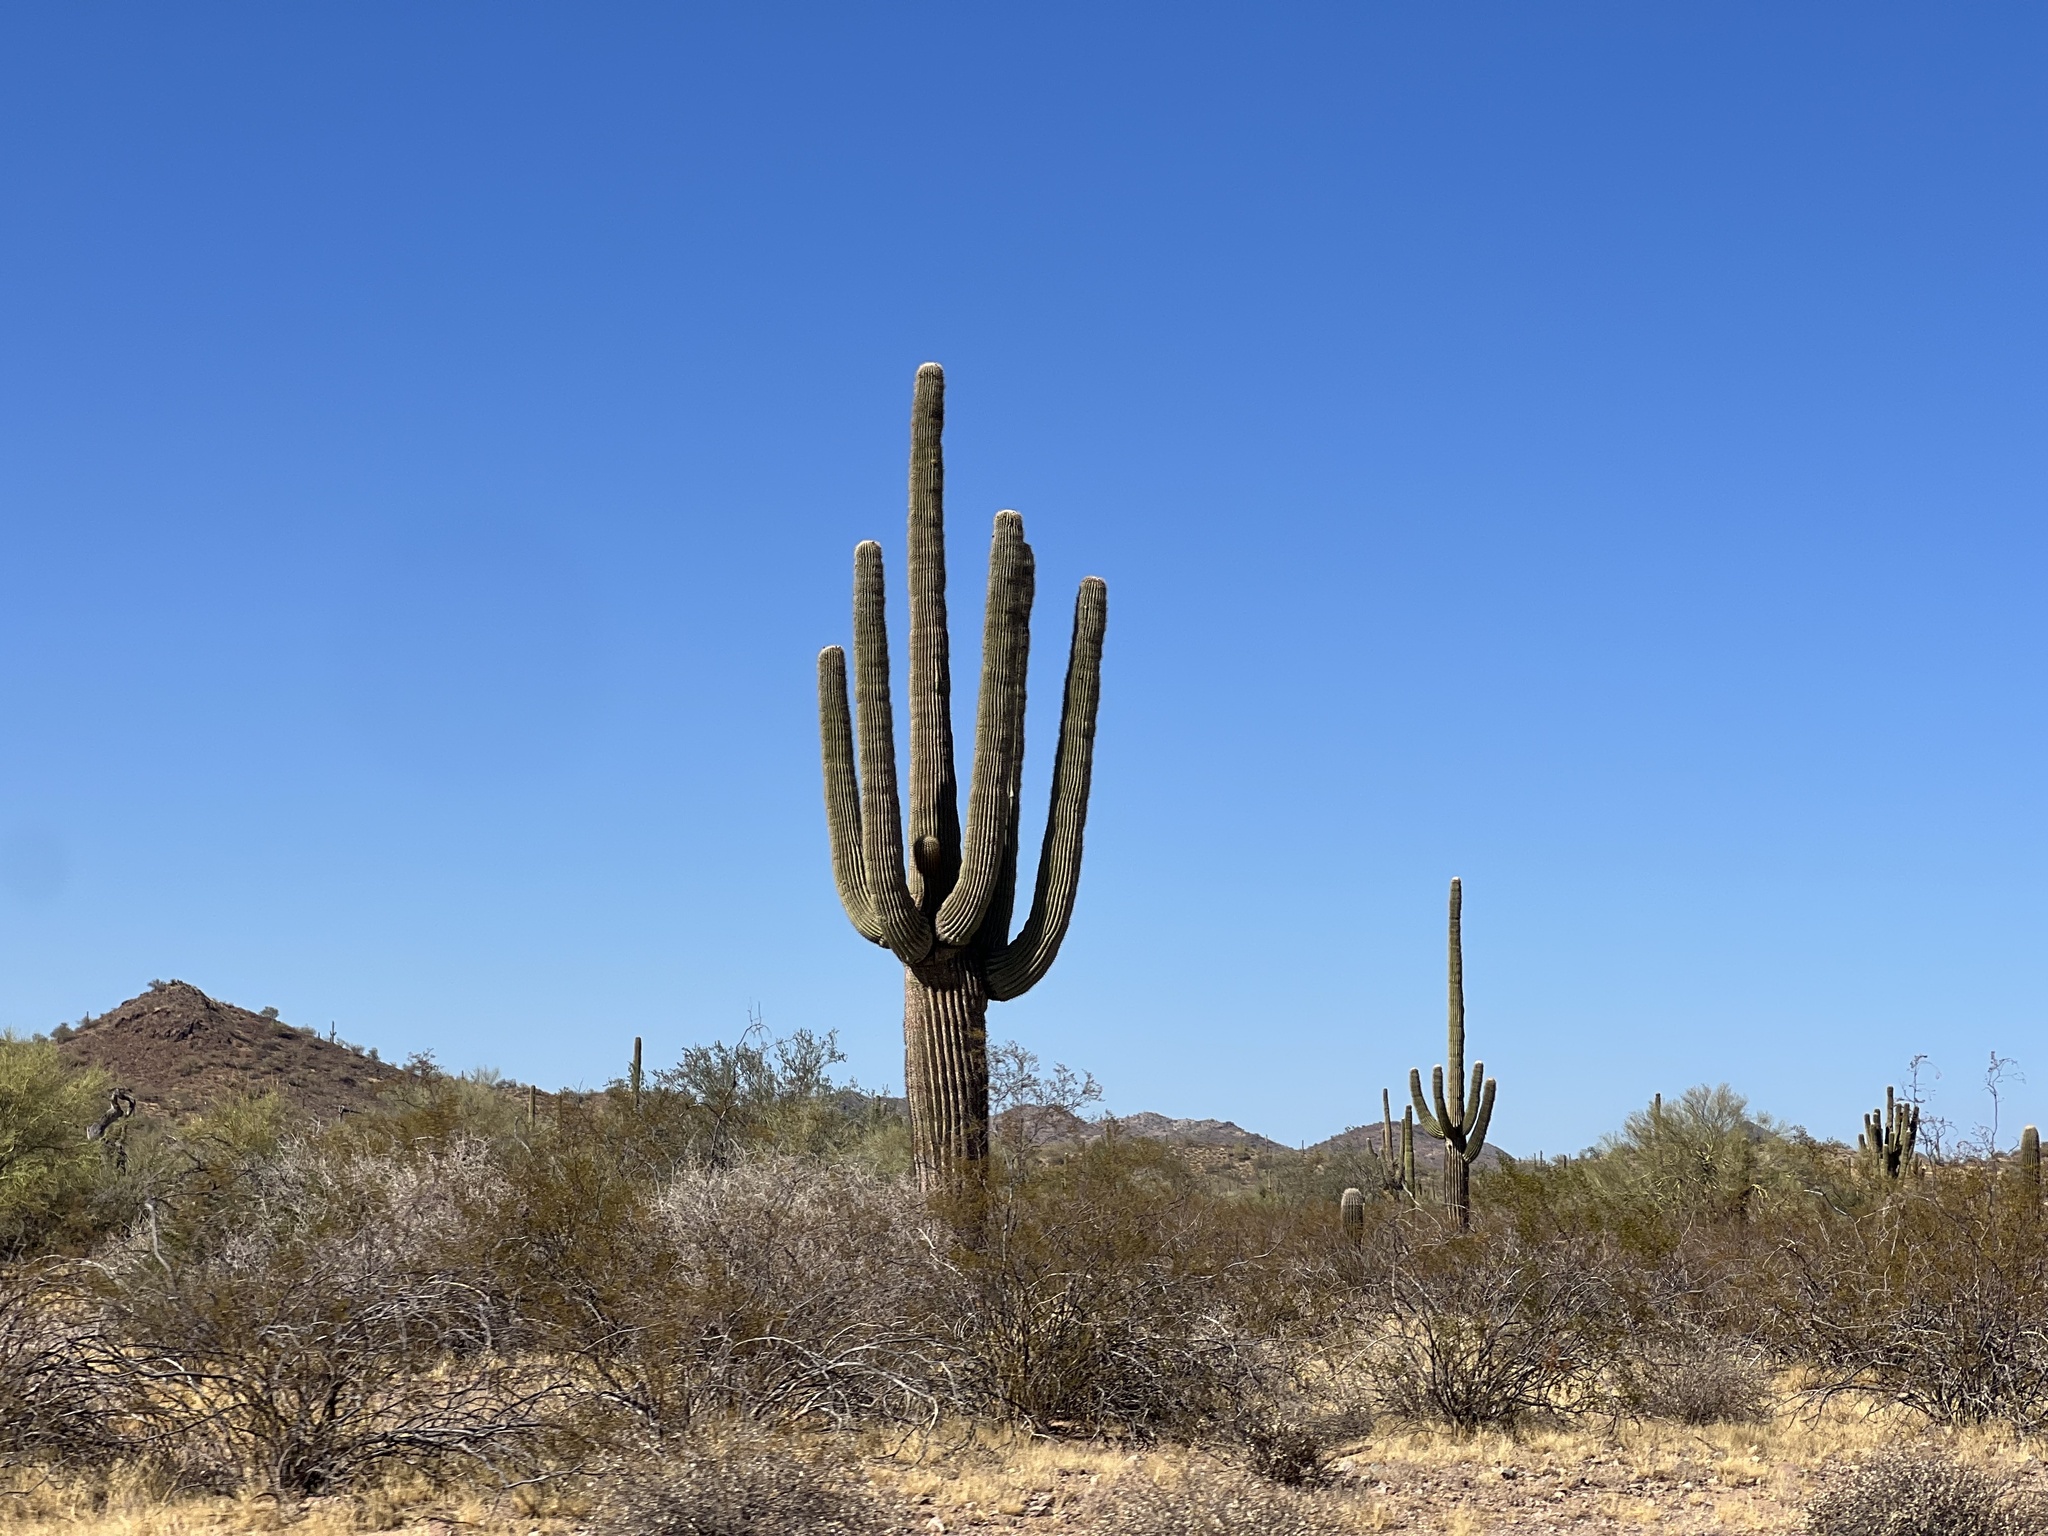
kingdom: Plantae
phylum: Tracheophyta
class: Magnoliopsida
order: Caryophyllales
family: Cactaceae
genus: Carnegiea
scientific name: Carnegiea gigantea
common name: Saguaro
